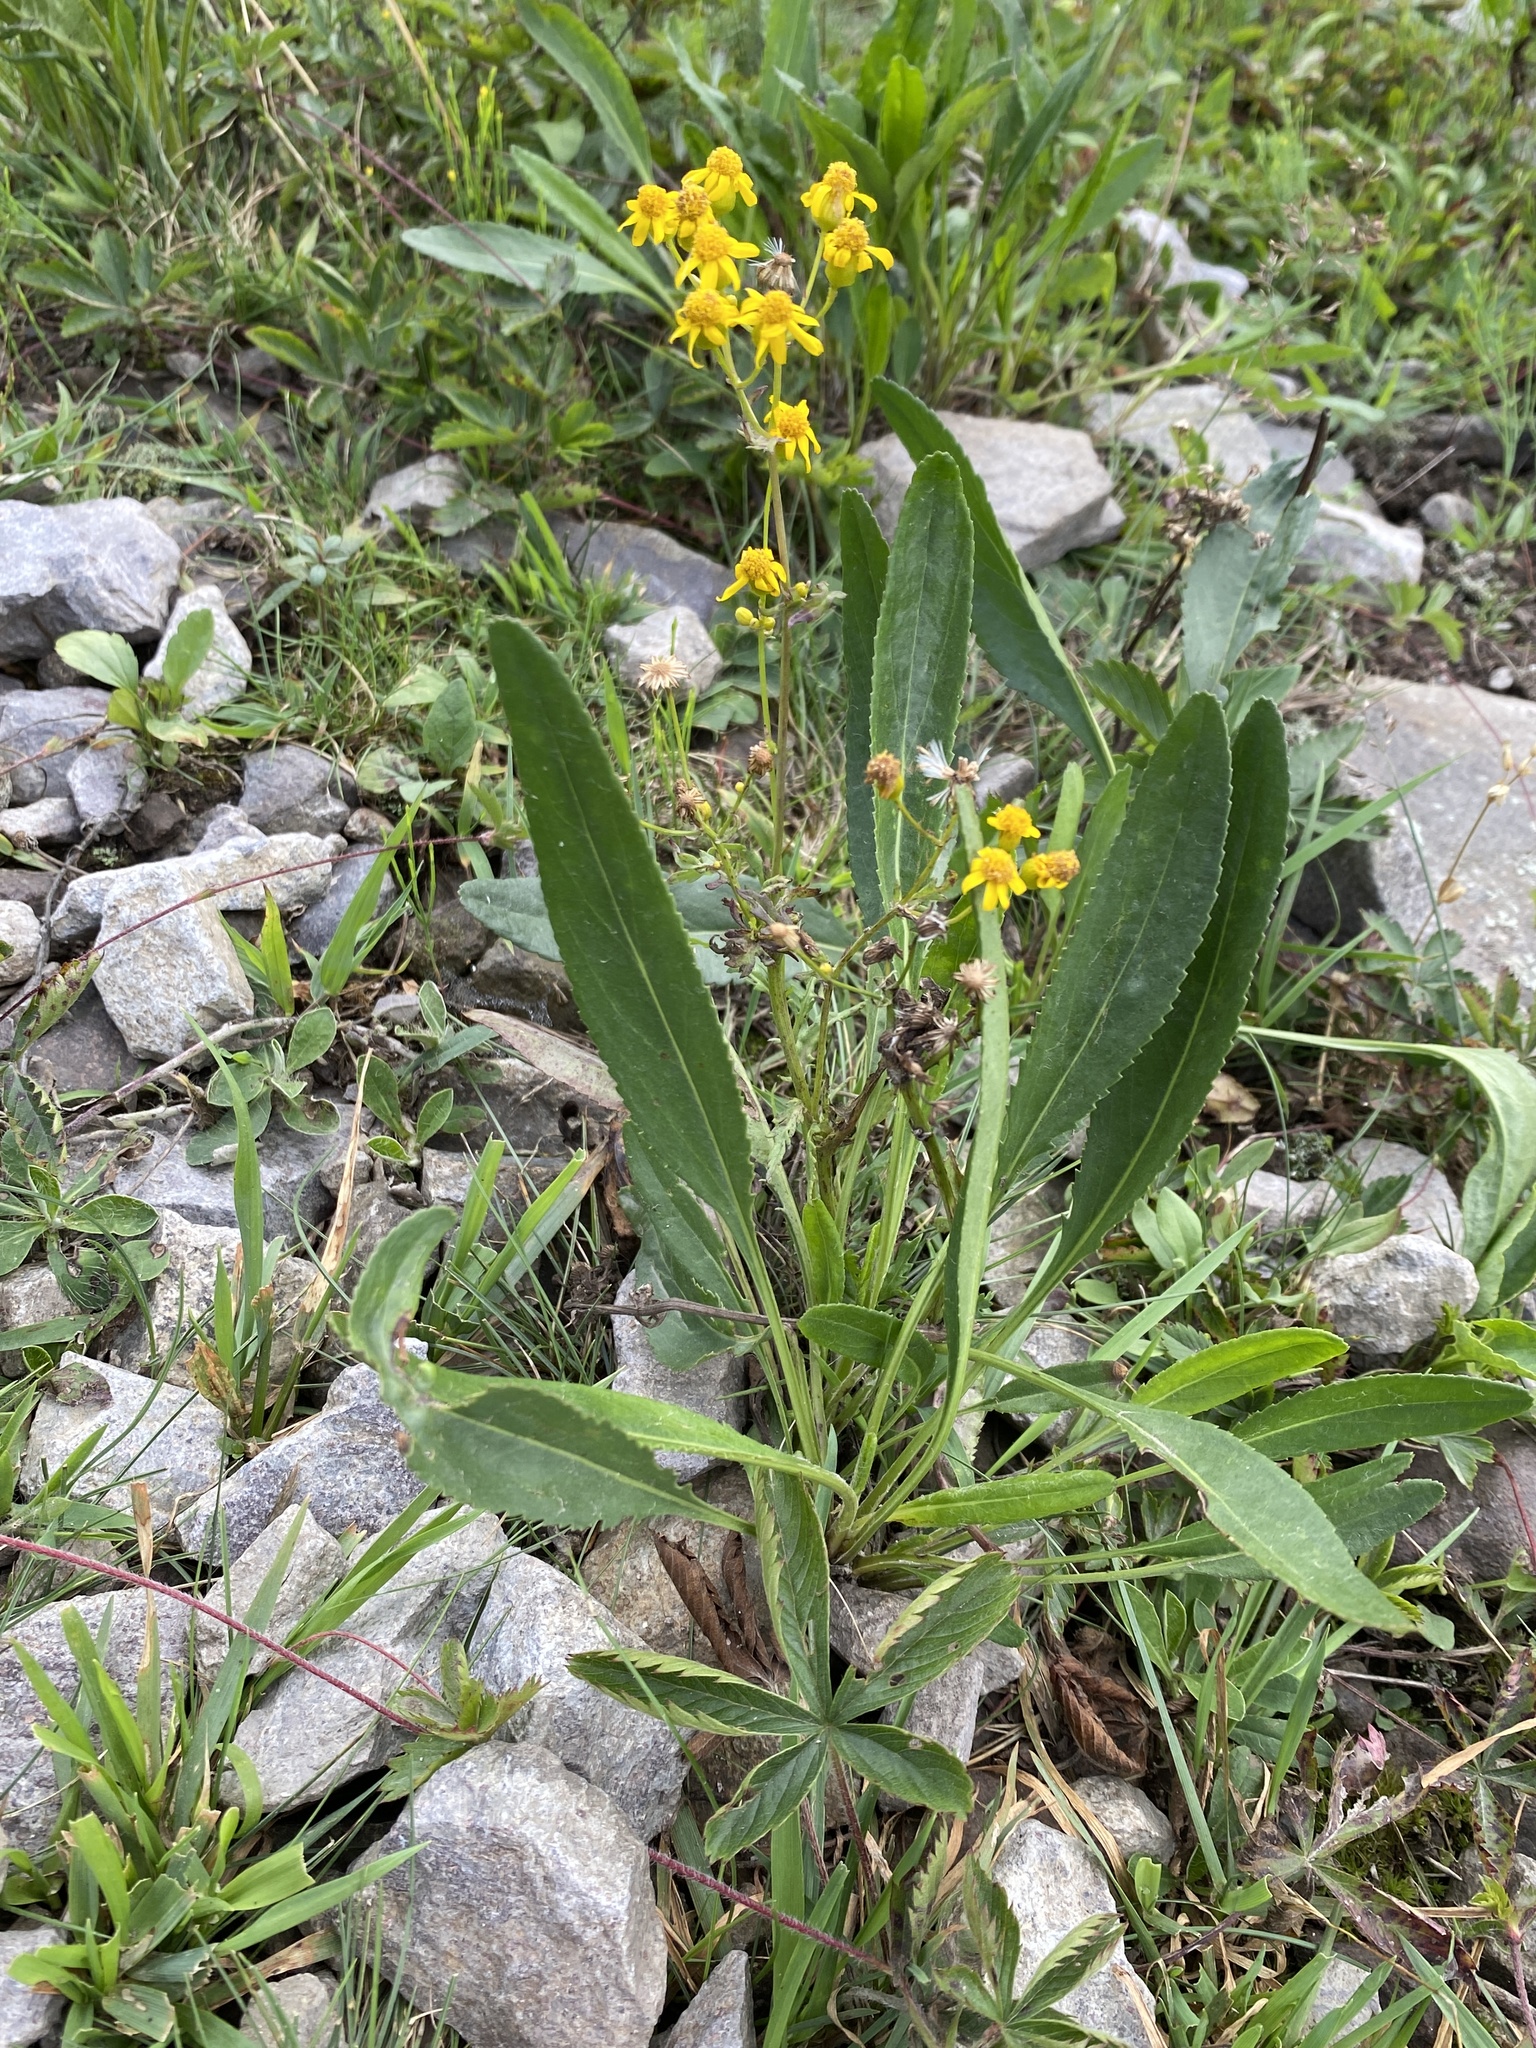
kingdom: Plantae
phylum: Tracheophyta
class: Magnoliopsida
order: Asterales
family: Asteraceae
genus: Packera
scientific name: Packera anonyma
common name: Small ragwort
